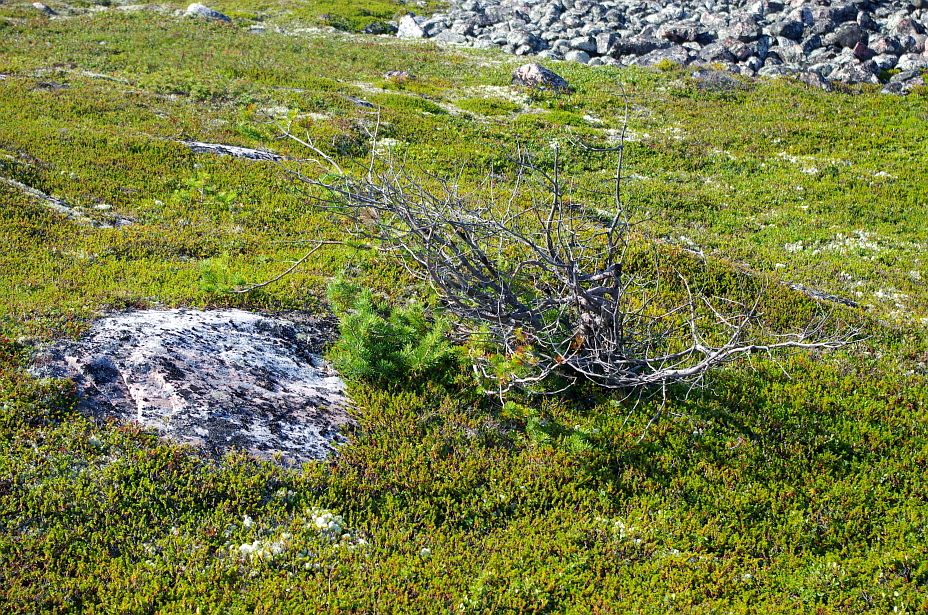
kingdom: Plantae
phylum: Tracheophyta
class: Pinopsida
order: Pinales
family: Pinaceae
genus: Pinus
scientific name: Pinus sylvestris
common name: Scots pine
